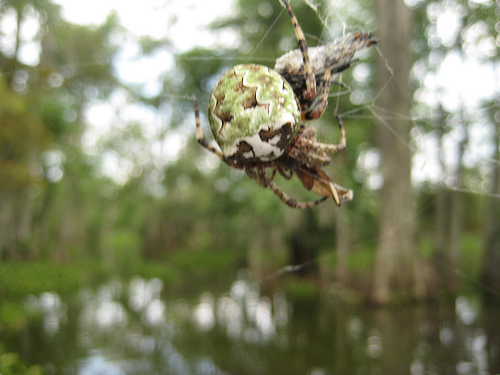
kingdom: Animalia
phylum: Arthropoda
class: Arachnida
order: Araneae
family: Araneidae
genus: Araneus
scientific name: Araneus bicentenarius
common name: Giant lichen orbweaver
